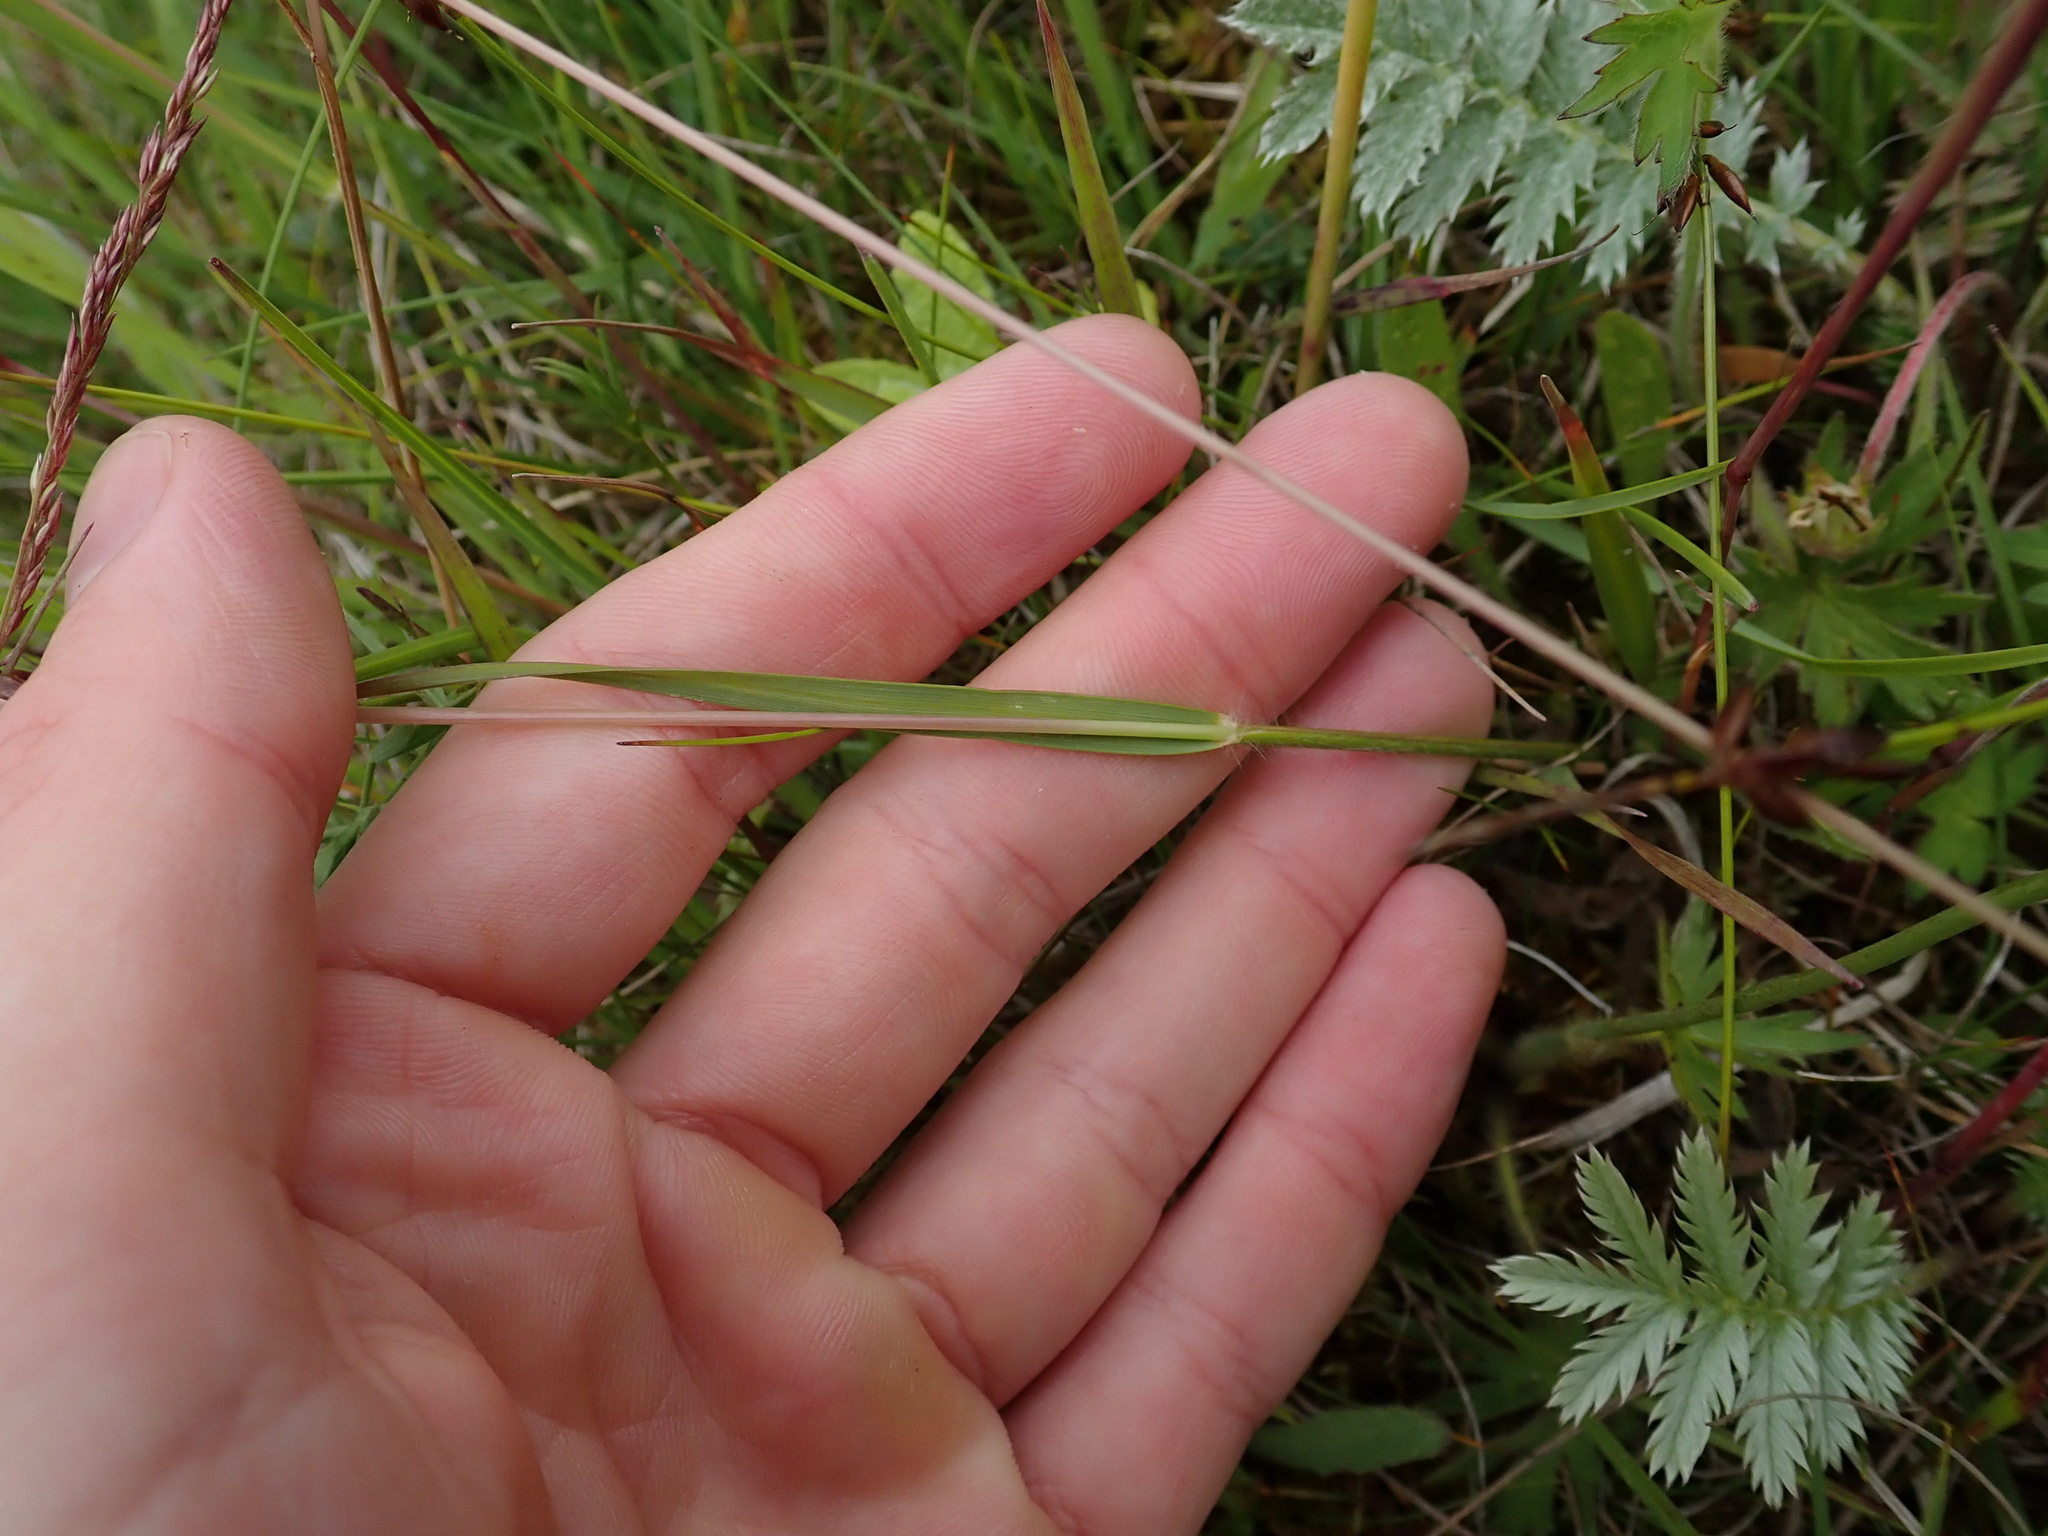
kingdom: Plantae
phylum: Tracheophyta
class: Liliopsida
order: Poales
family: Poaceae
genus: Briza
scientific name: Briza media
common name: Quaking grass
